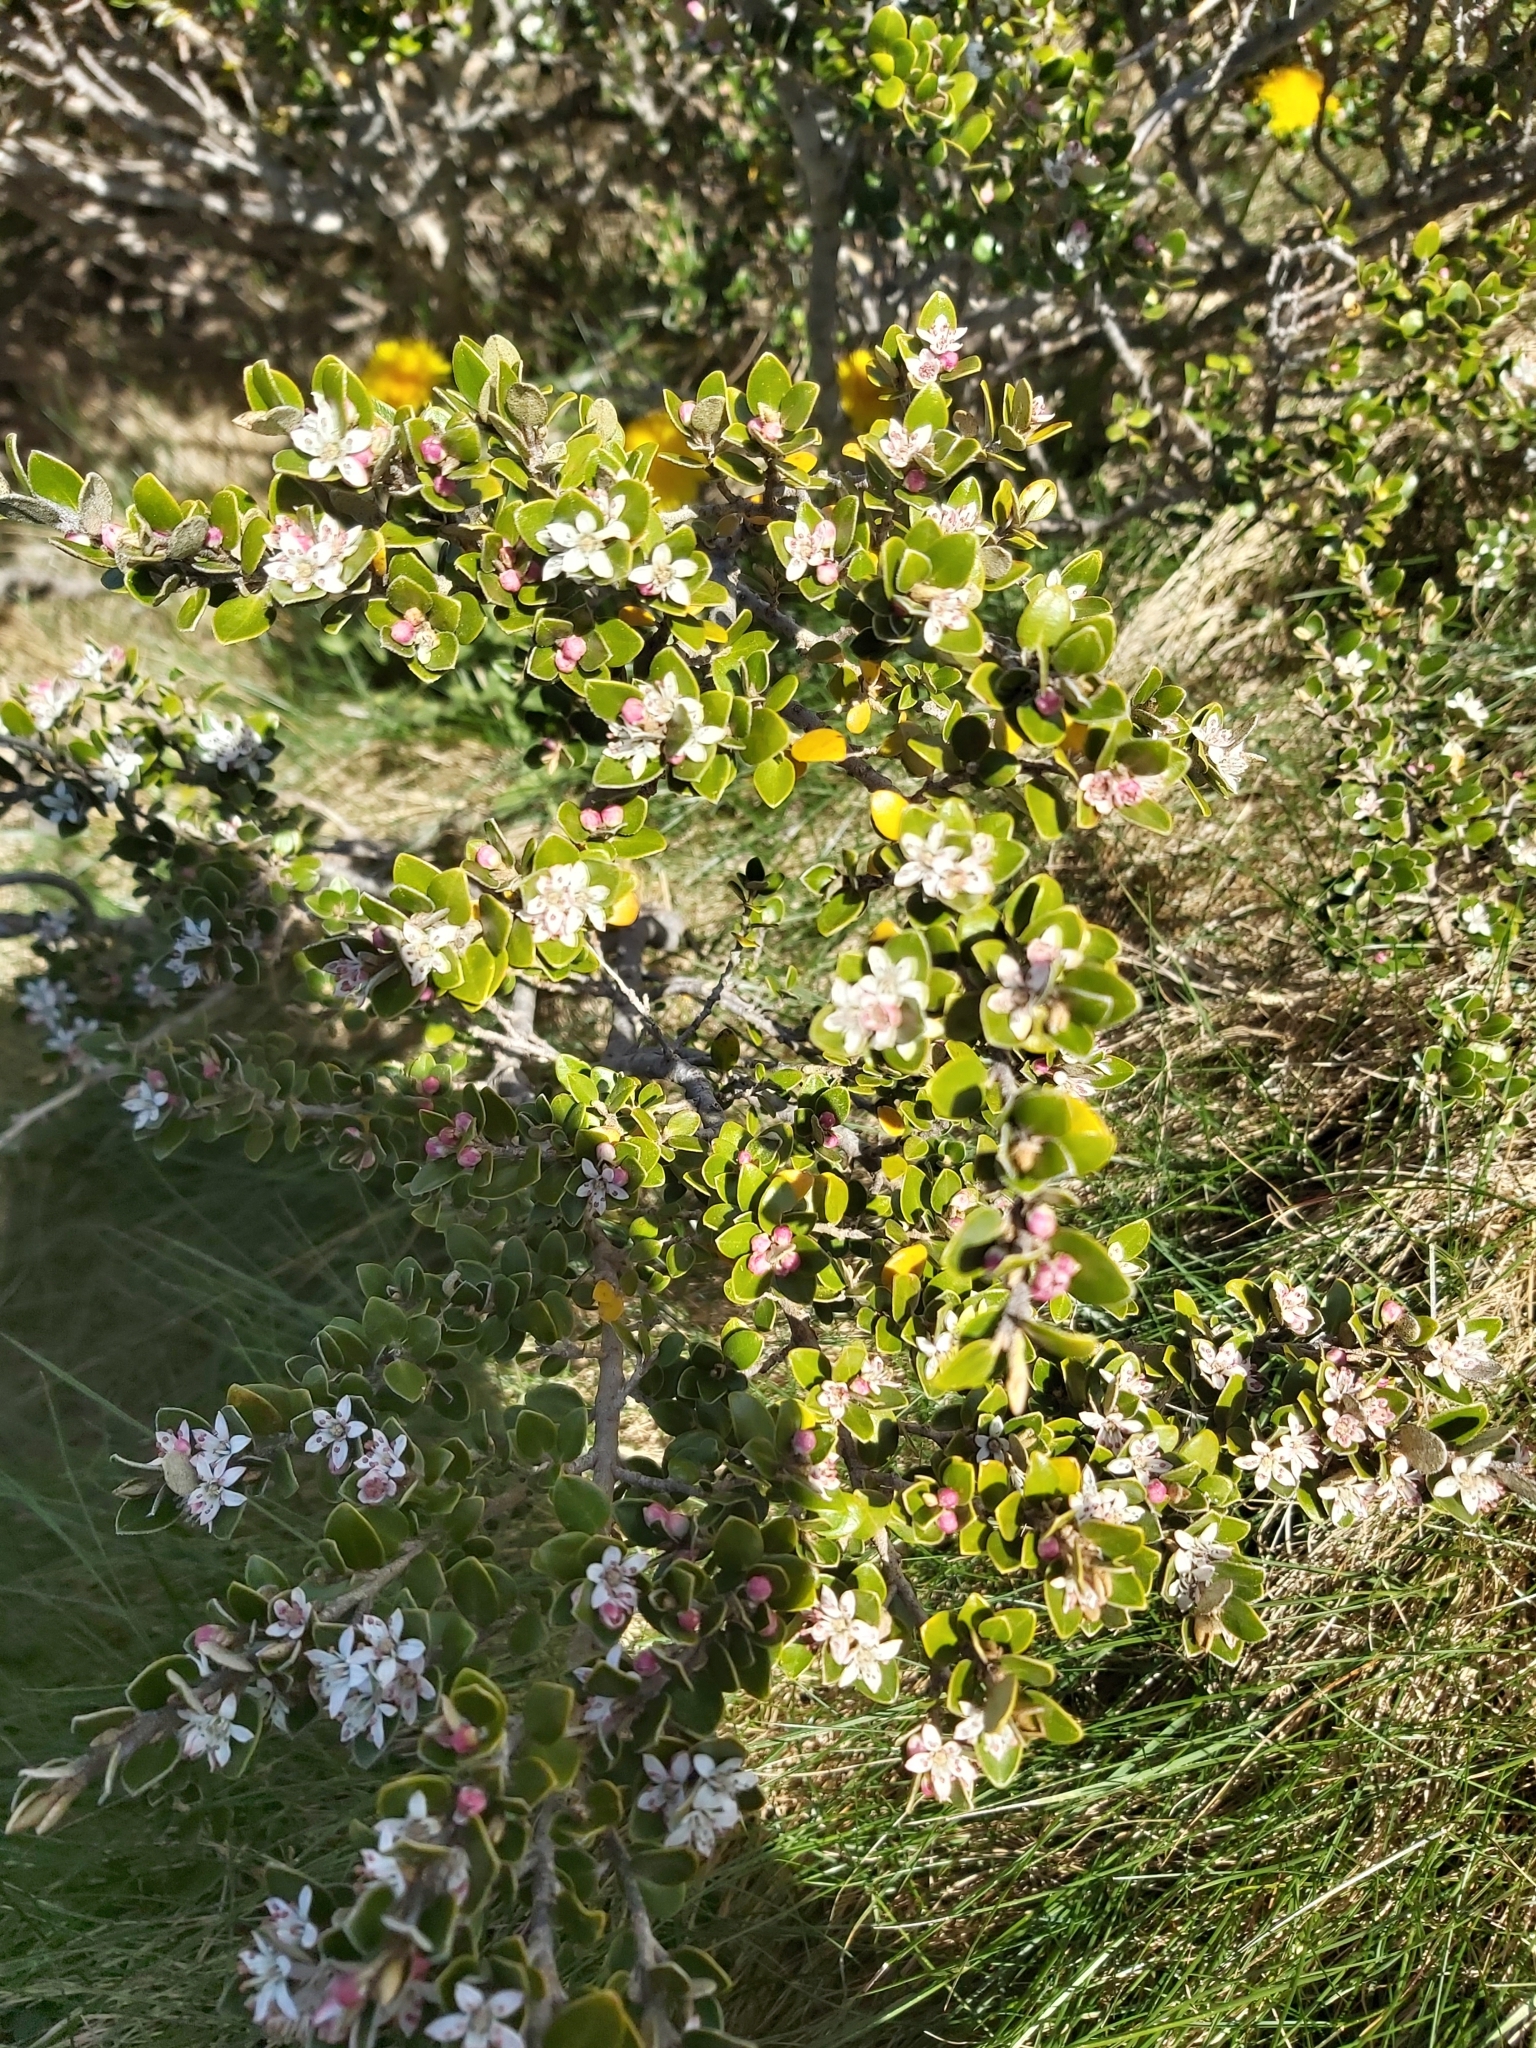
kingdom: Plantae
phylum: Tracheophyta
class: Magnoliopsida
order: Sapindales
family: Rutaceae
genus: Nematolepis
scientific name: Nematolepis ovatifolia
